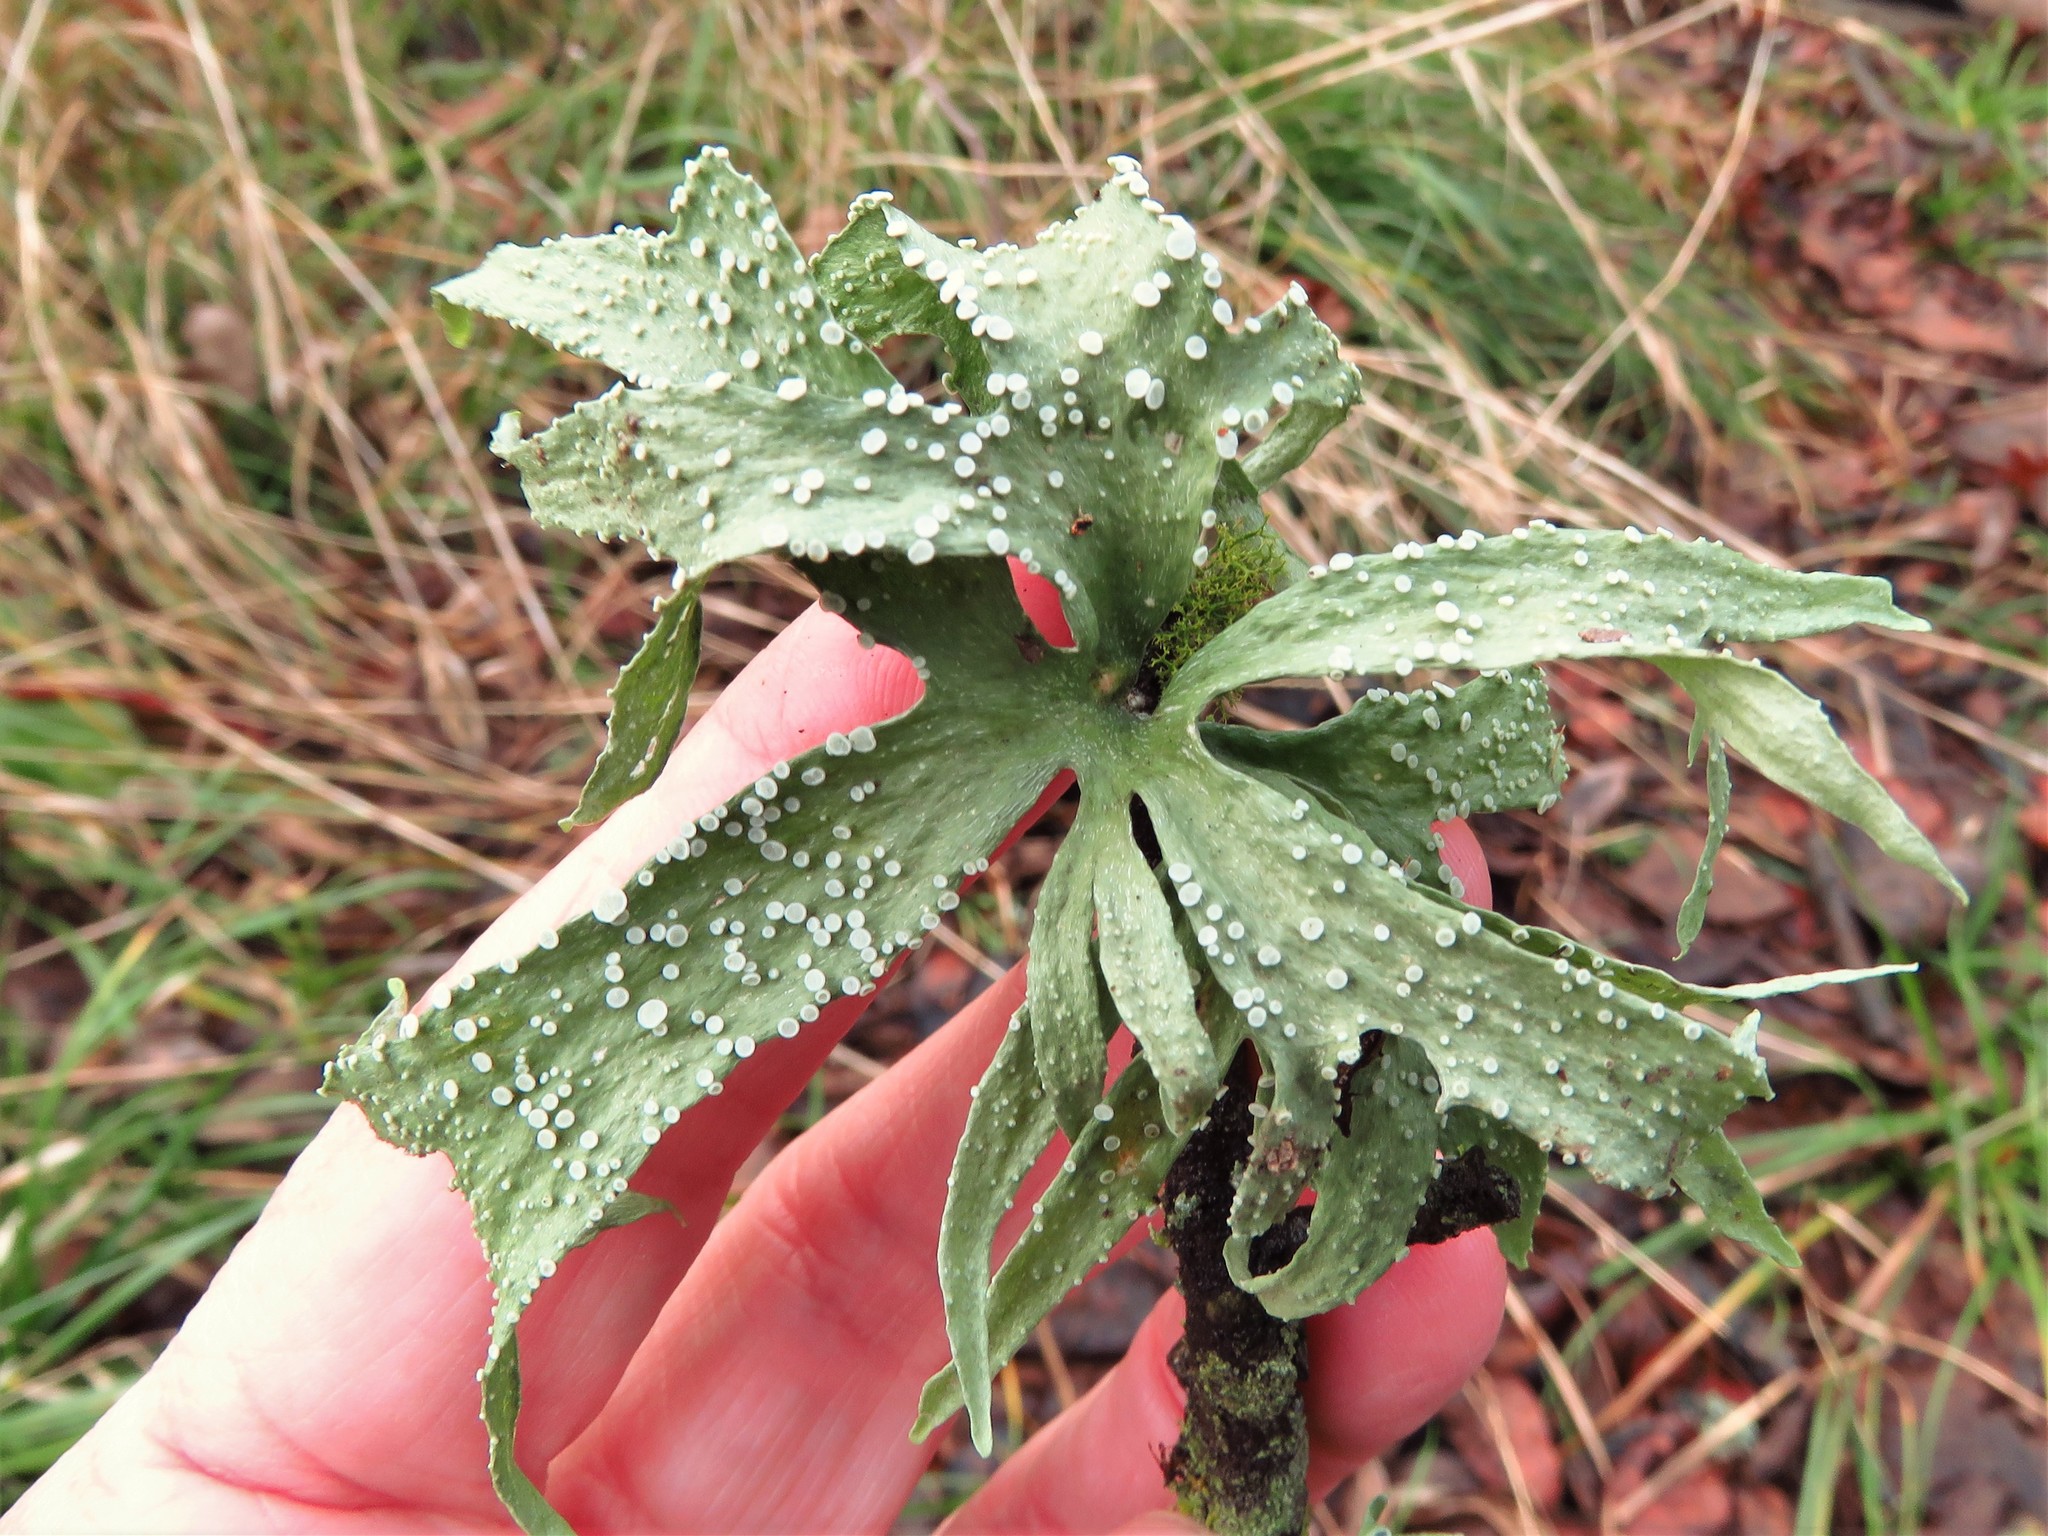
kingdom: Fungi
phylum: Ascomycota
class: Lecanoromycetes
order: Lecanorales
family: Ramalinaceae
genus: Ramalina
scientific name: Ramalina celastri
